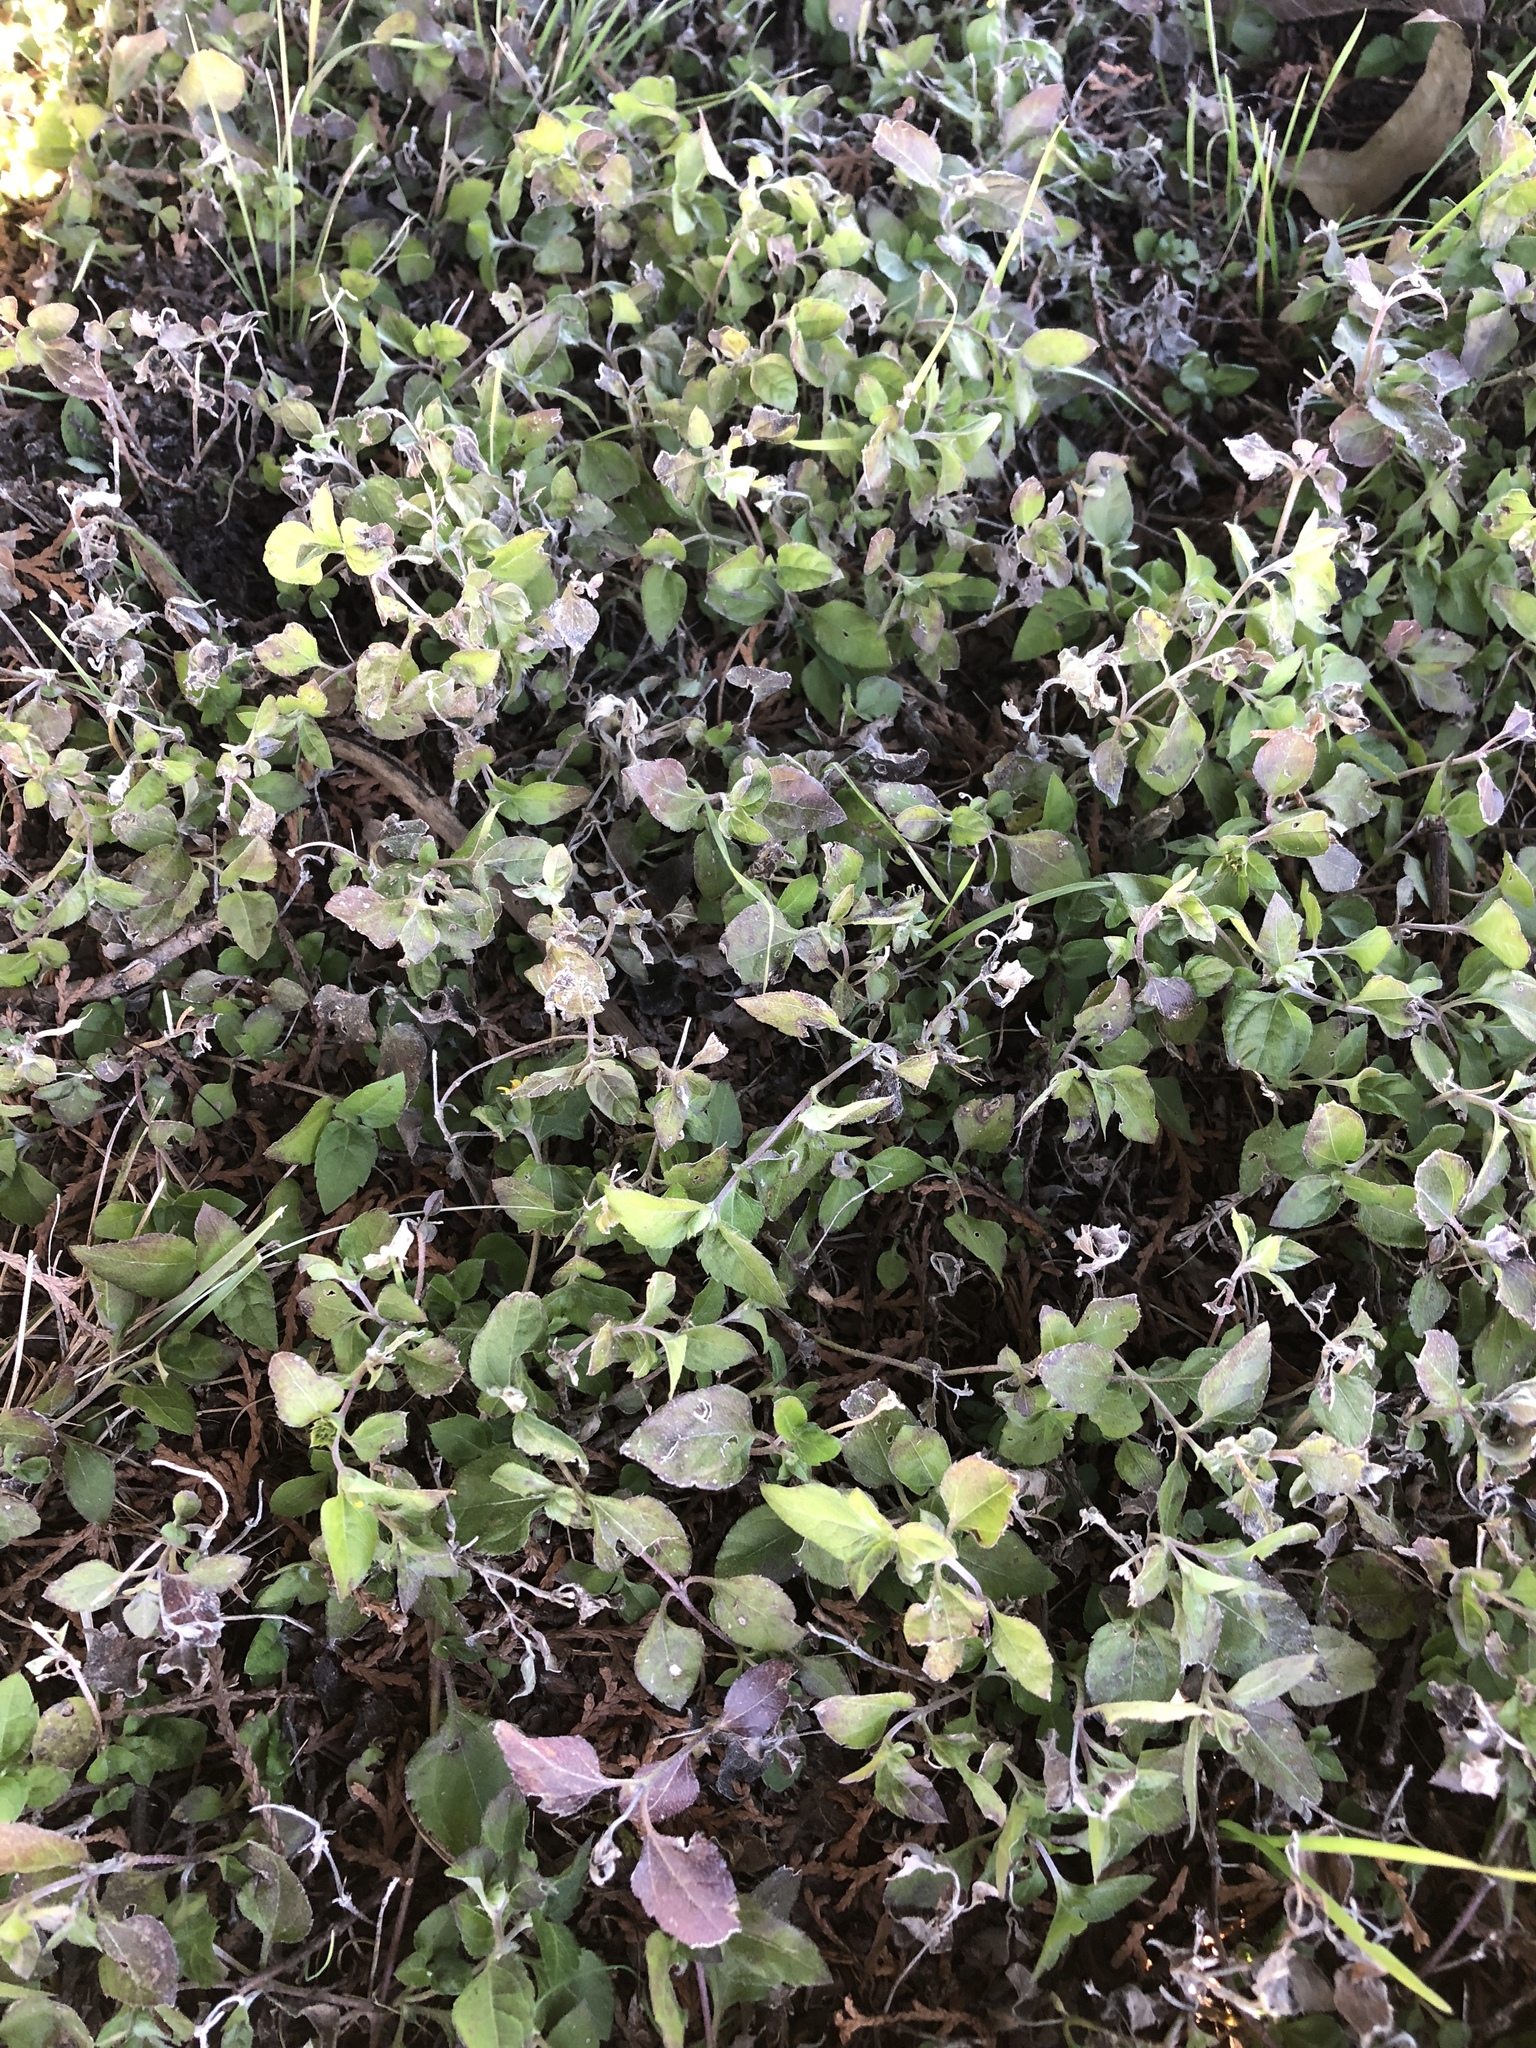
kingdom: Plantae
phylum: Tracheophyta
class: Magnoliopsida
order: Asterales
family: Asteraceae
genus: Calyptocarpus
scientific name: Calyptocarpus vialis
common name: Straggler daisy
